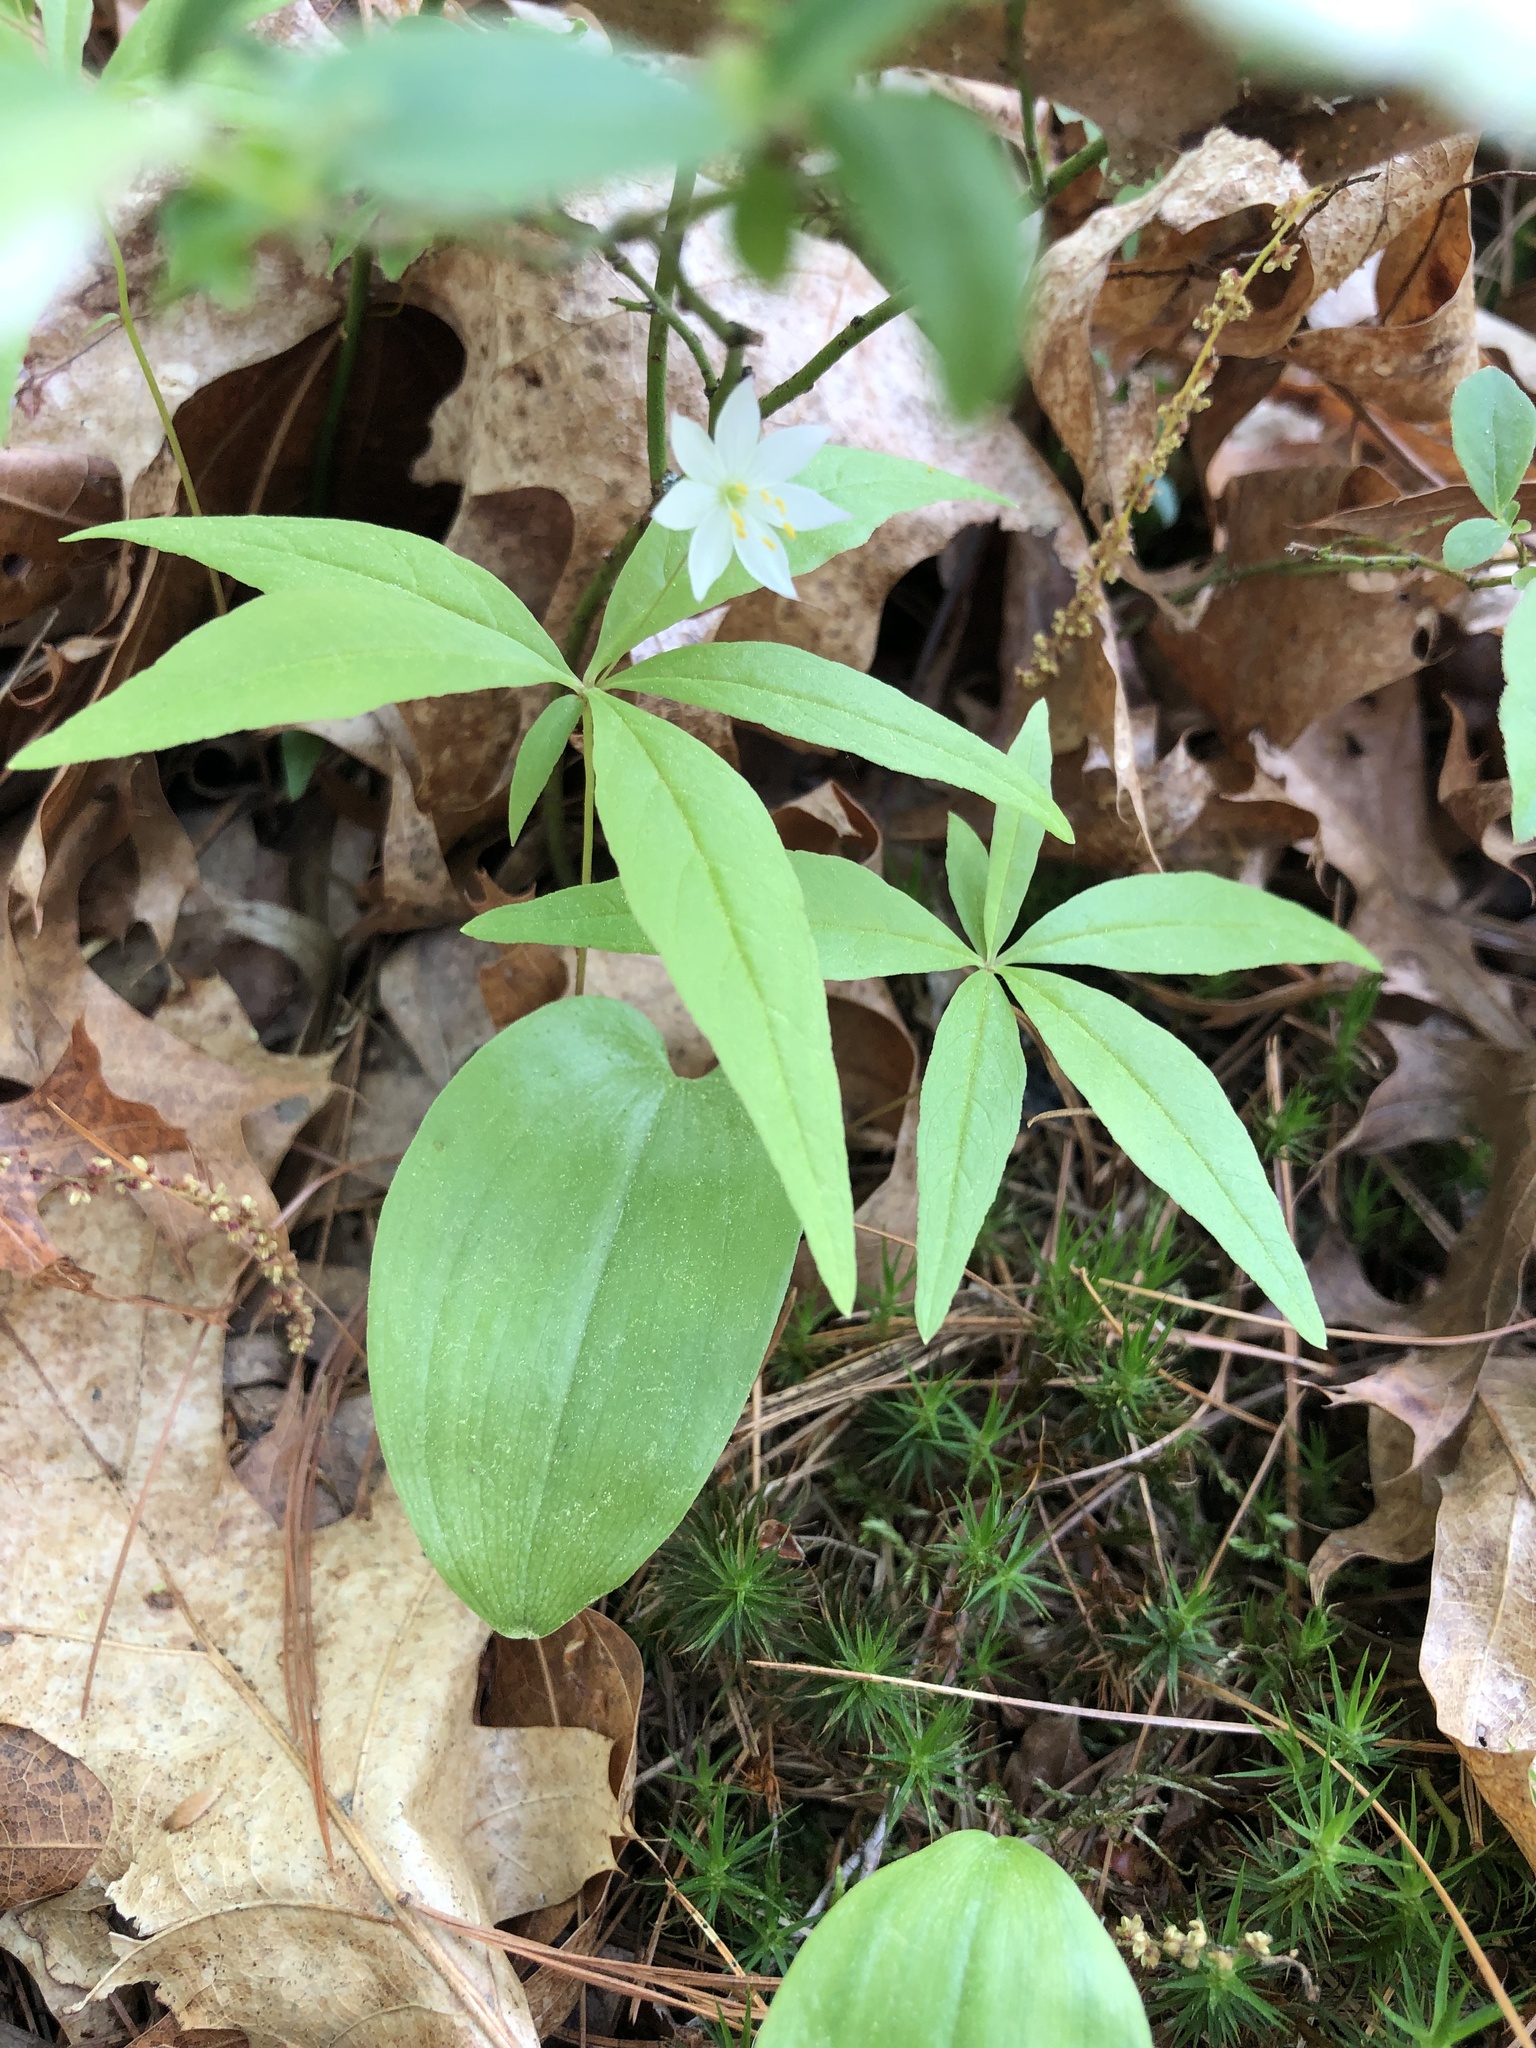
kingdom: Plantae
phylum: Tracheophyta
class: Magnoliopsida
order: Ericales
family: Primulaceae
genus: Lysimachia
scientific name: Lysimachia borealis
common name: American starflower
